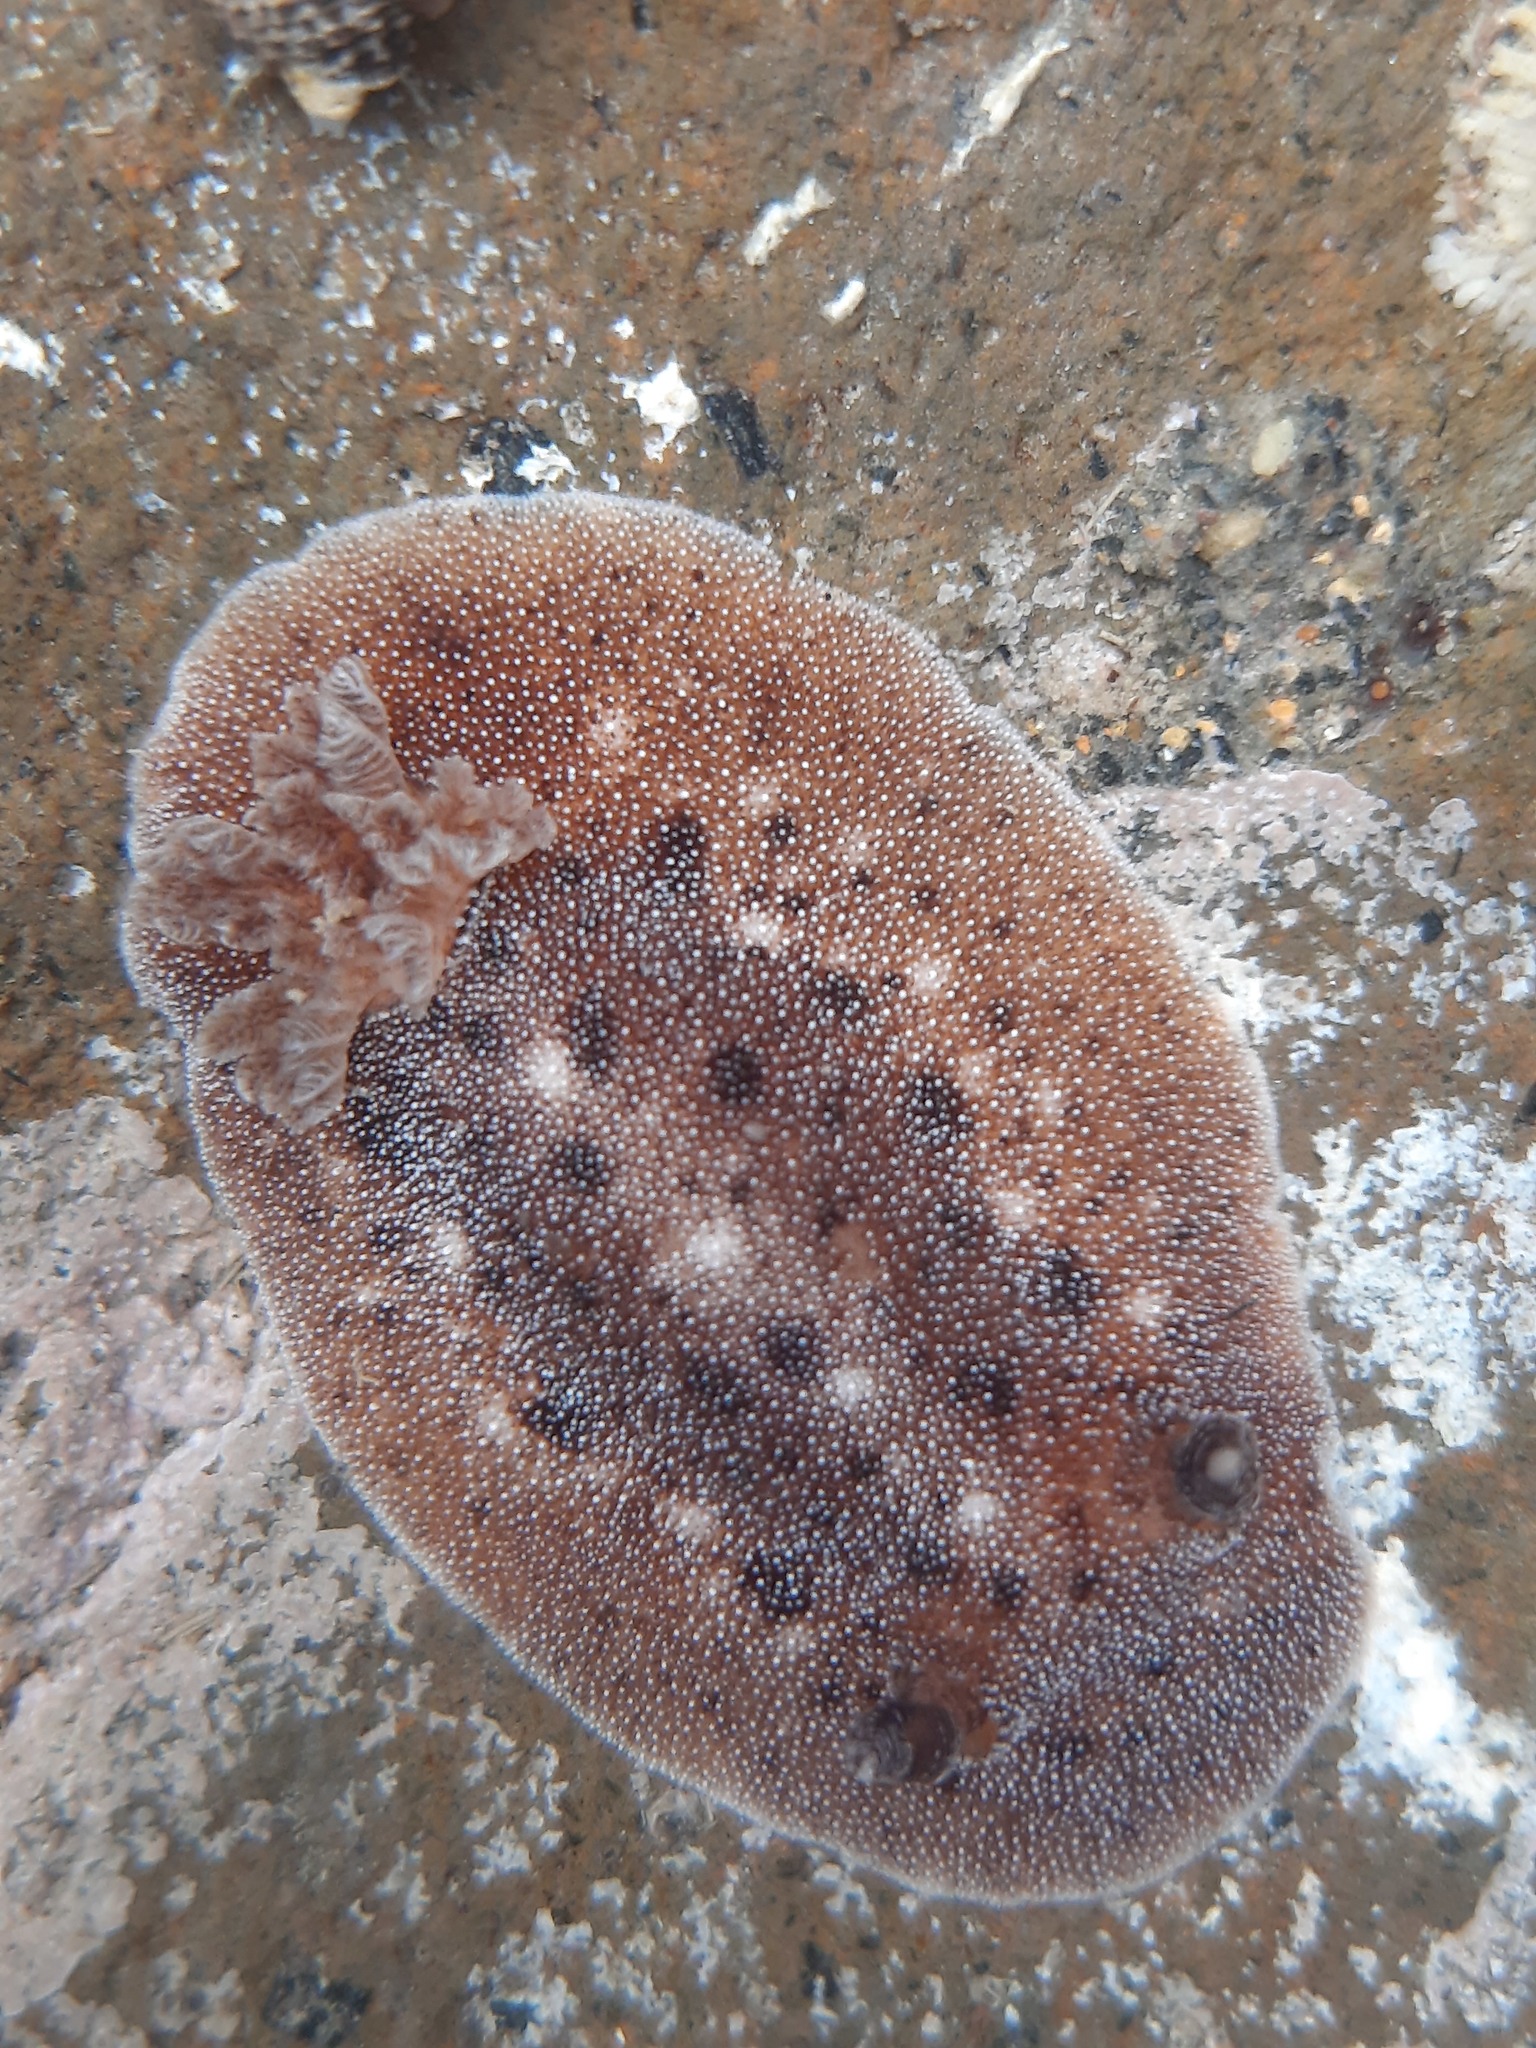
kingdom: Animalia
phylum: Mollusca
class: Gastropoda
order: Nudibranchia
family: Discodorididae
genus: Alloiodoris
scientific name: Alloiodoris lanuginata
